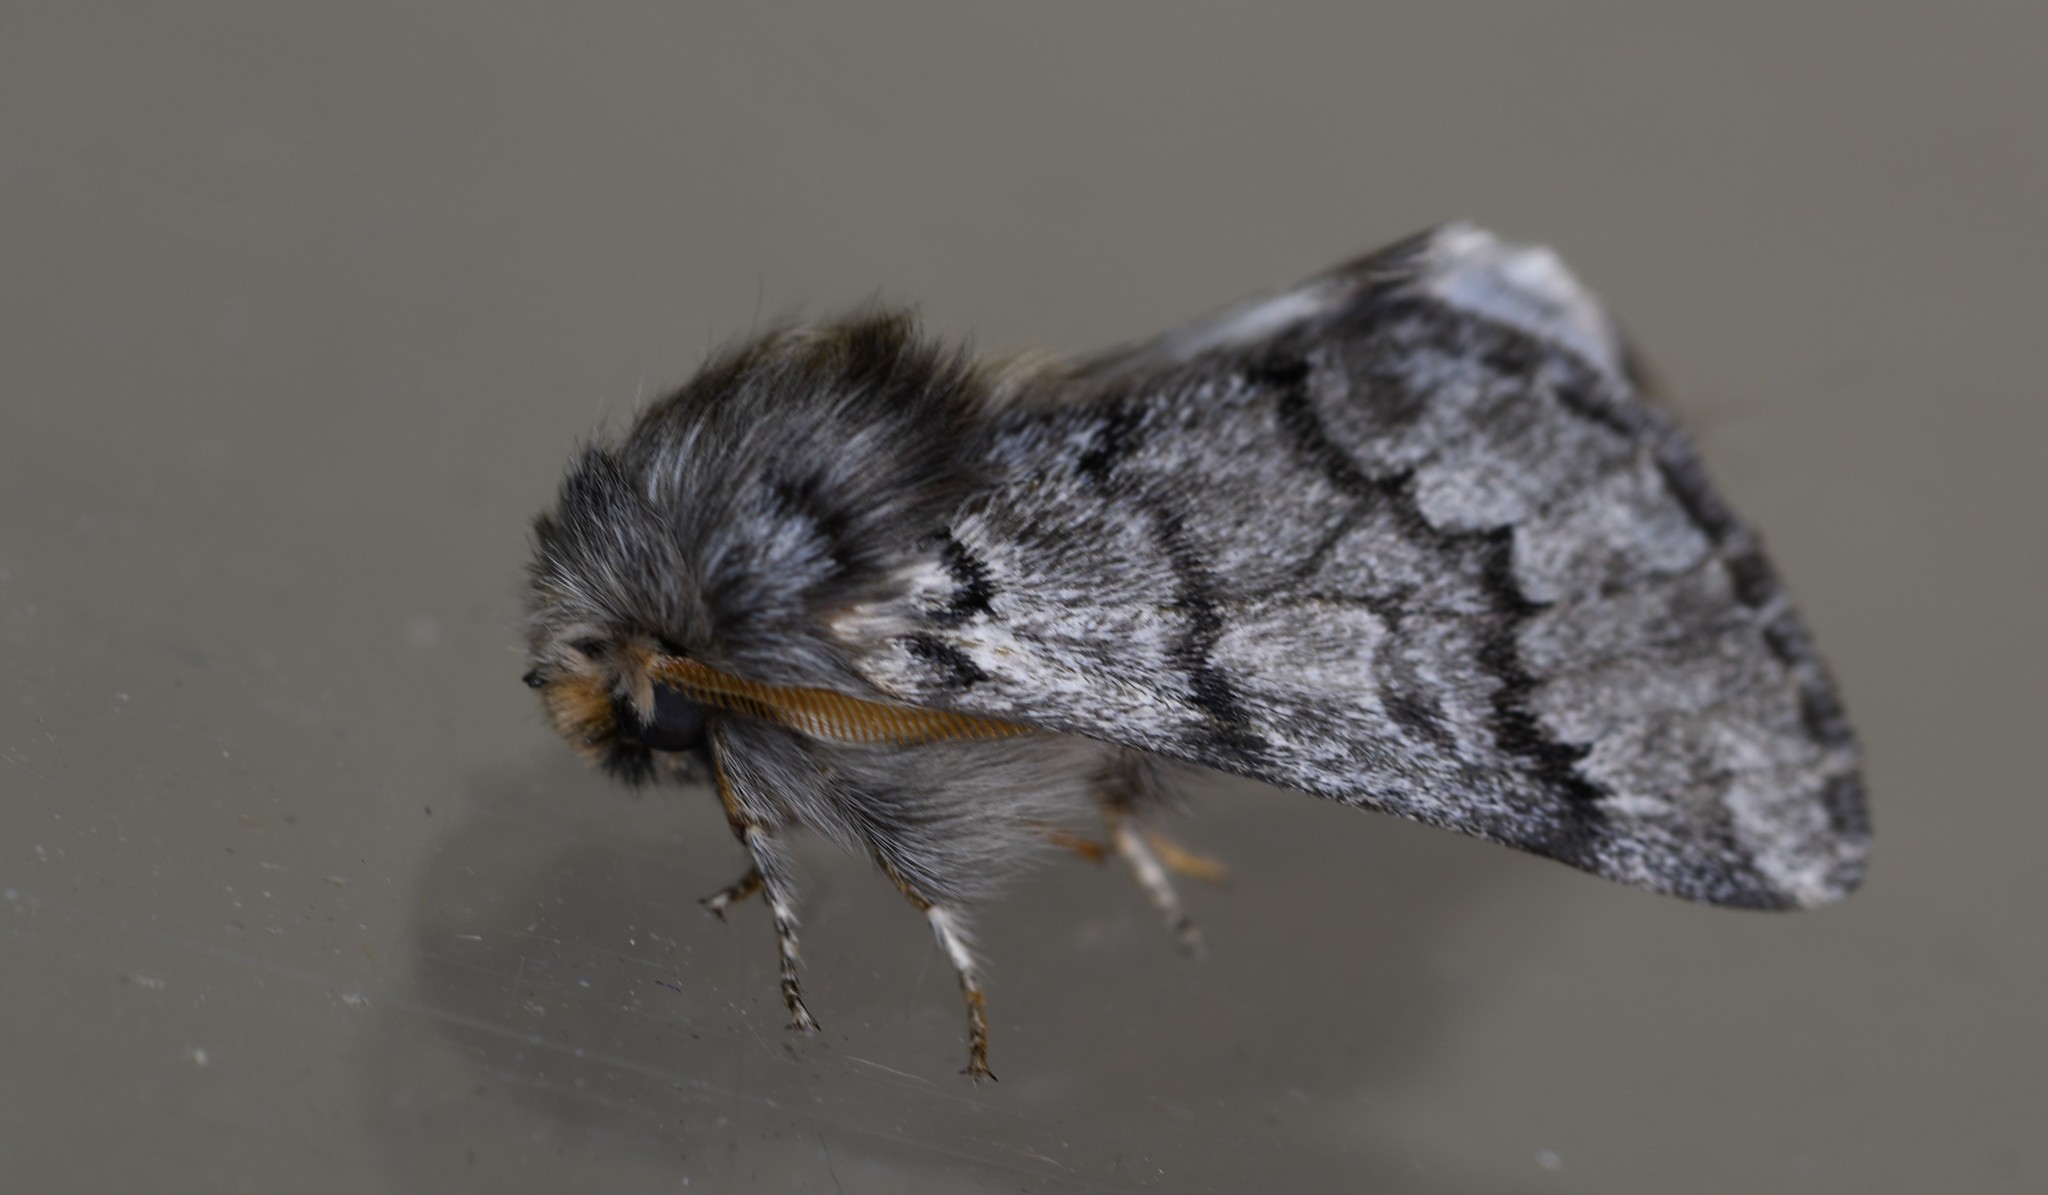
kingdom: Animalia
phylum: Arthropoda
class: Insecta
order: Lepidoptera
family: Notodontidae
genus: Thaumetopoea
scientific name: Thaumetopoea pityocampa
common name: Pine processionary
